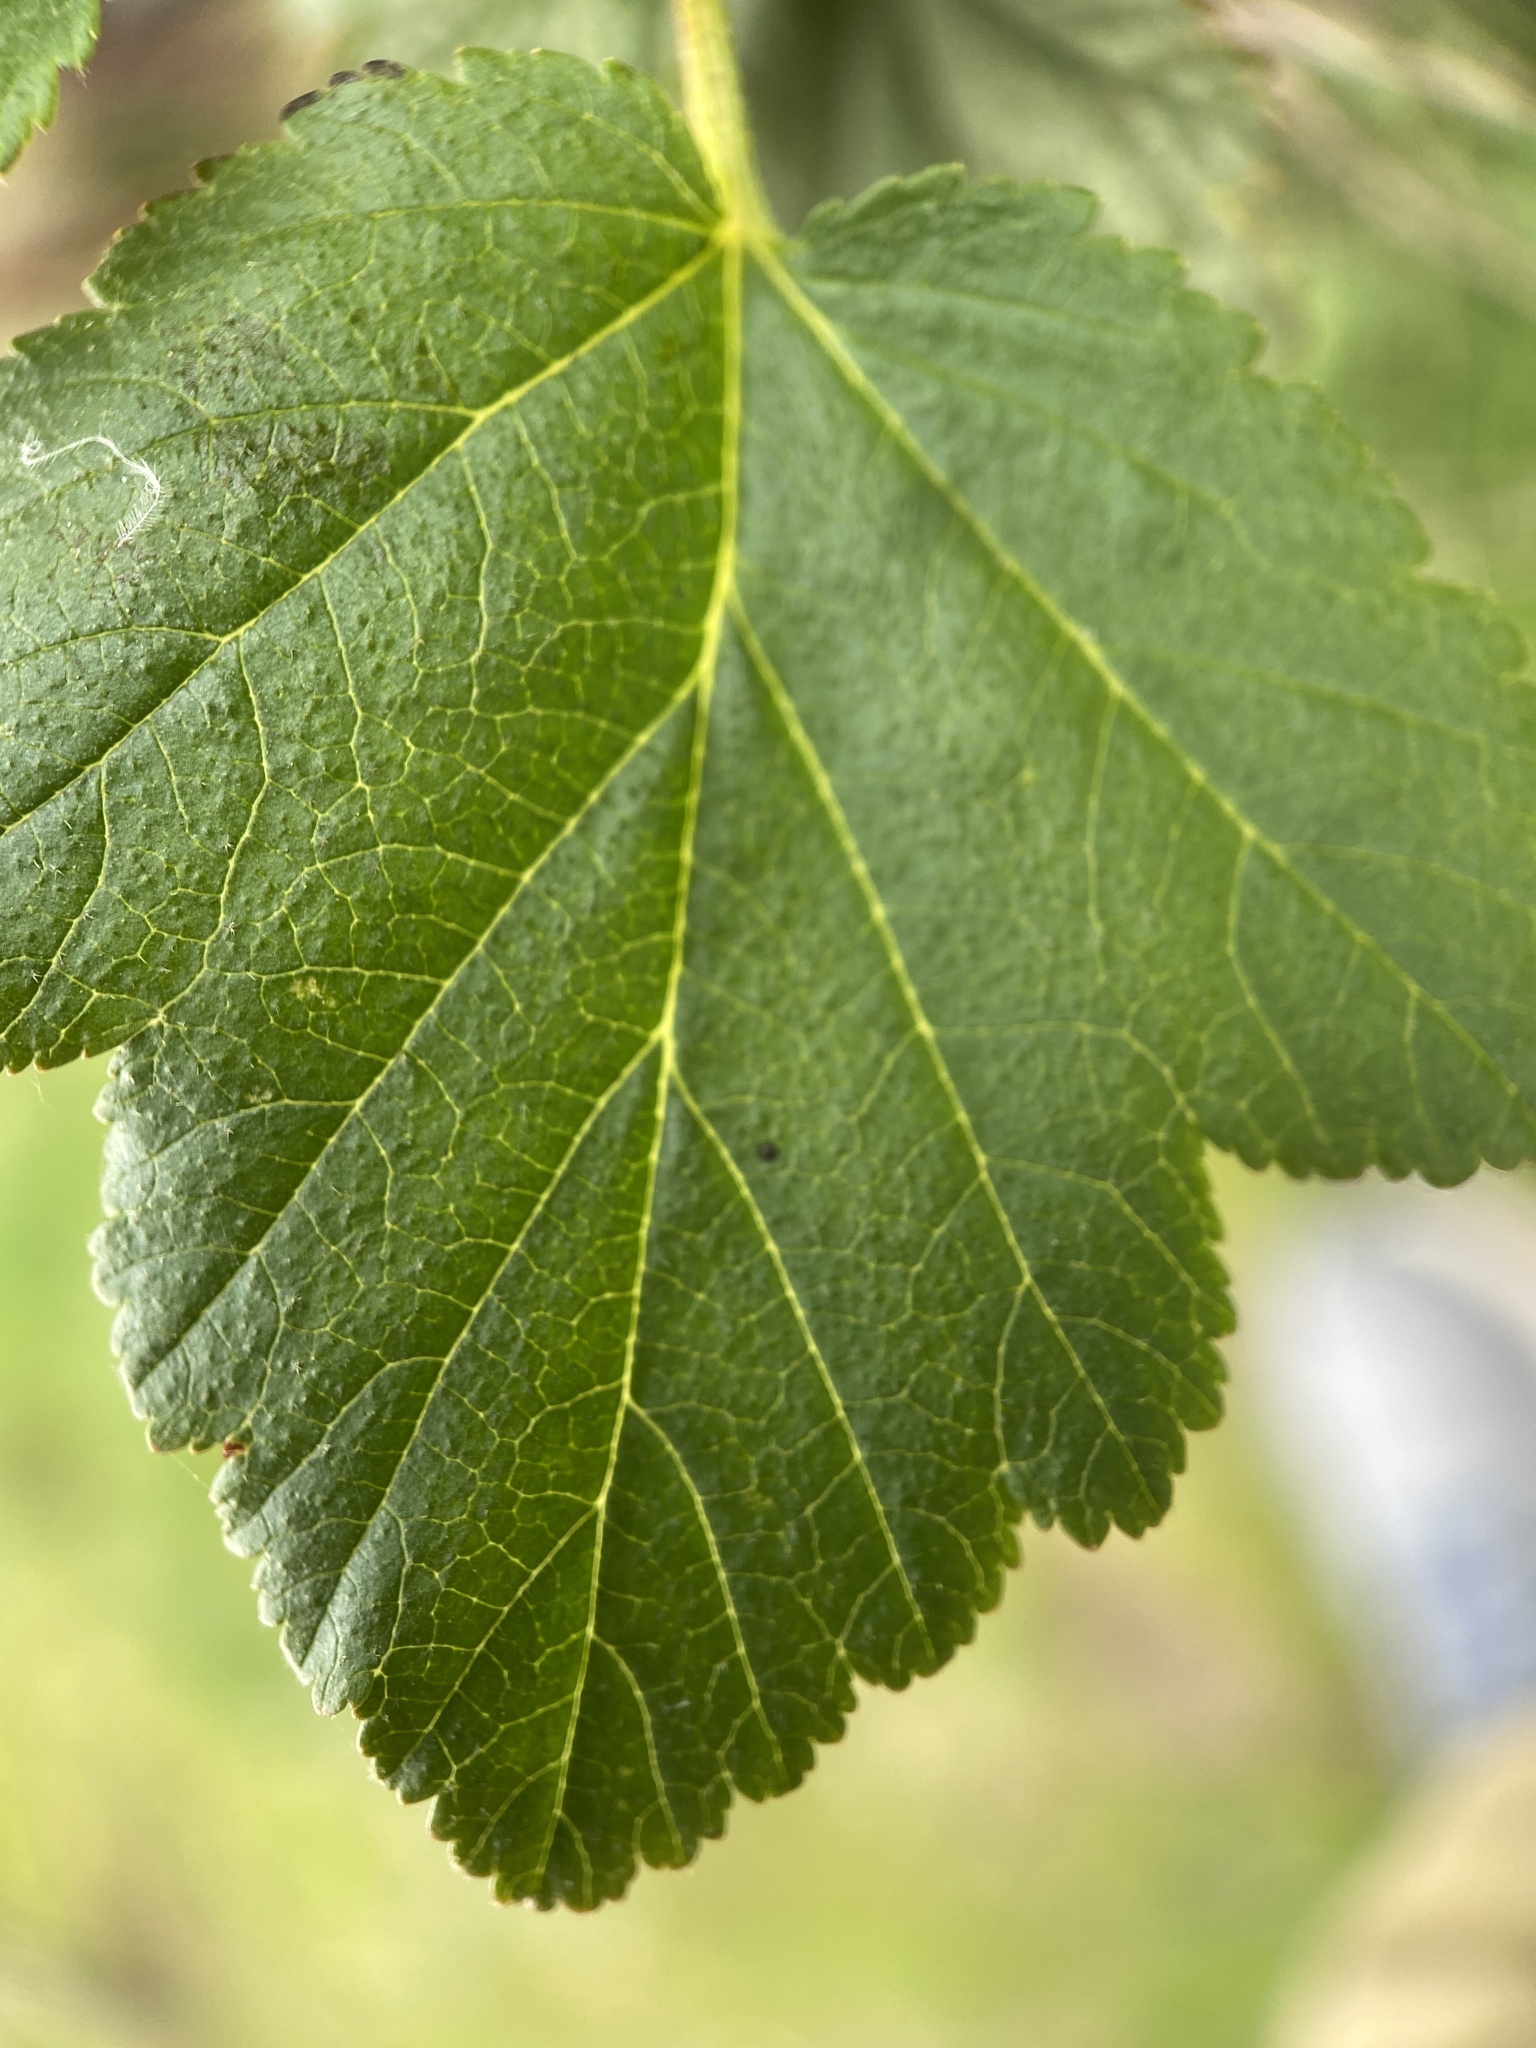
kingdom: Plantae
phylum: Tracheophyta
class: Magnoliopsida
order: Rosales
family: Rosaceae
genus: Physocarpus
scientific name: Physocarpus malvaceus
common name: Mallow ninebark
